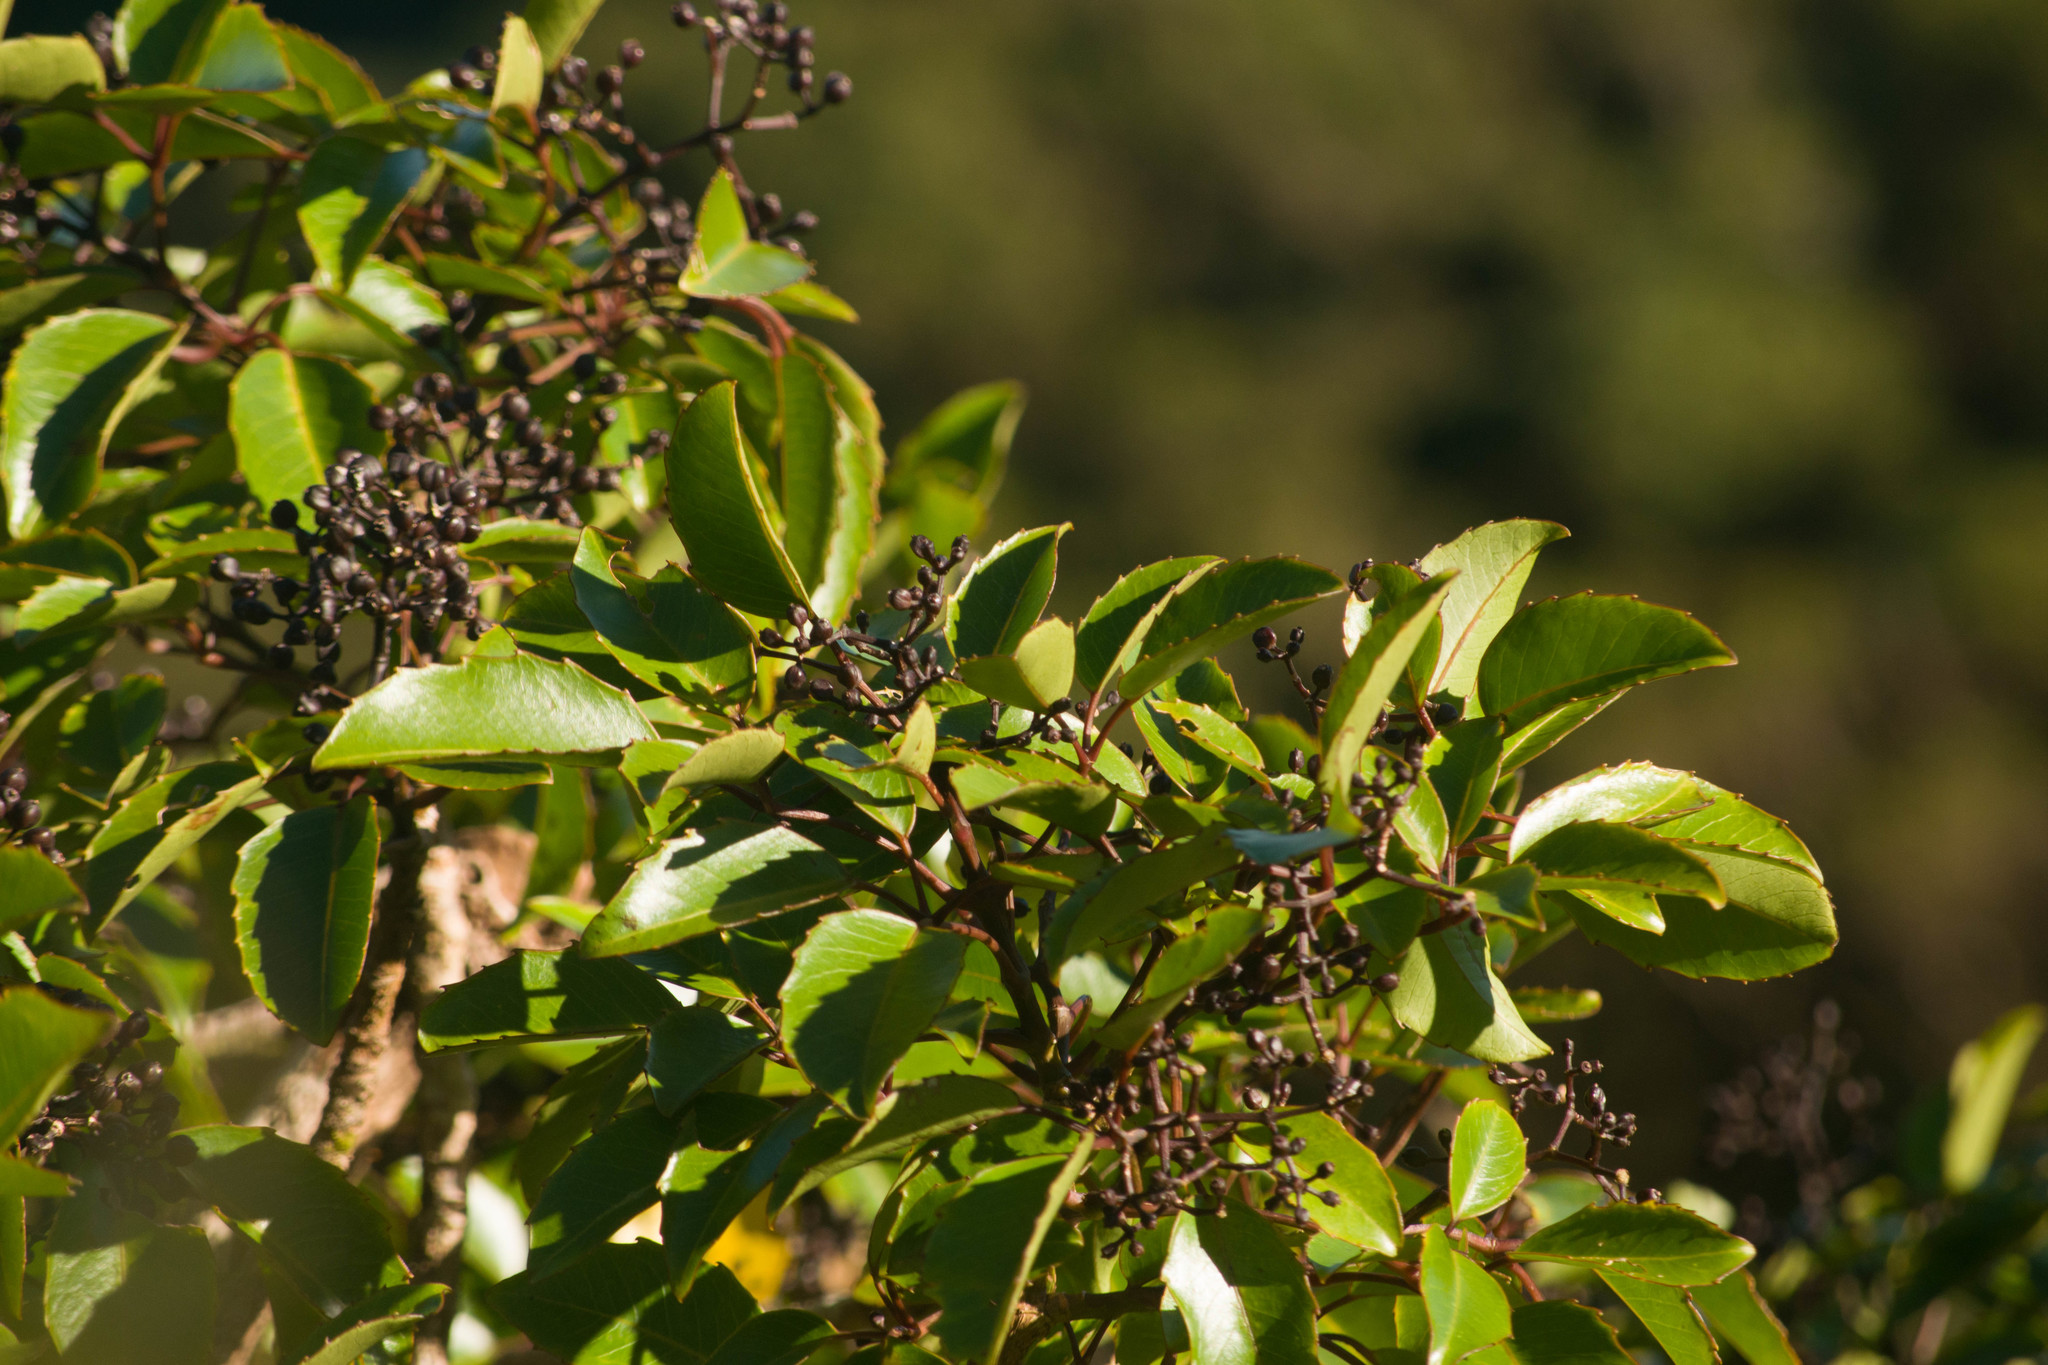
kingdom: Plantae
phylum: Tracheophyta
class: Magnoliopsida
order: Apiales
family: Araliaceae
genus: Cheirodendron
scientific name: Cheirodendron trigynum
